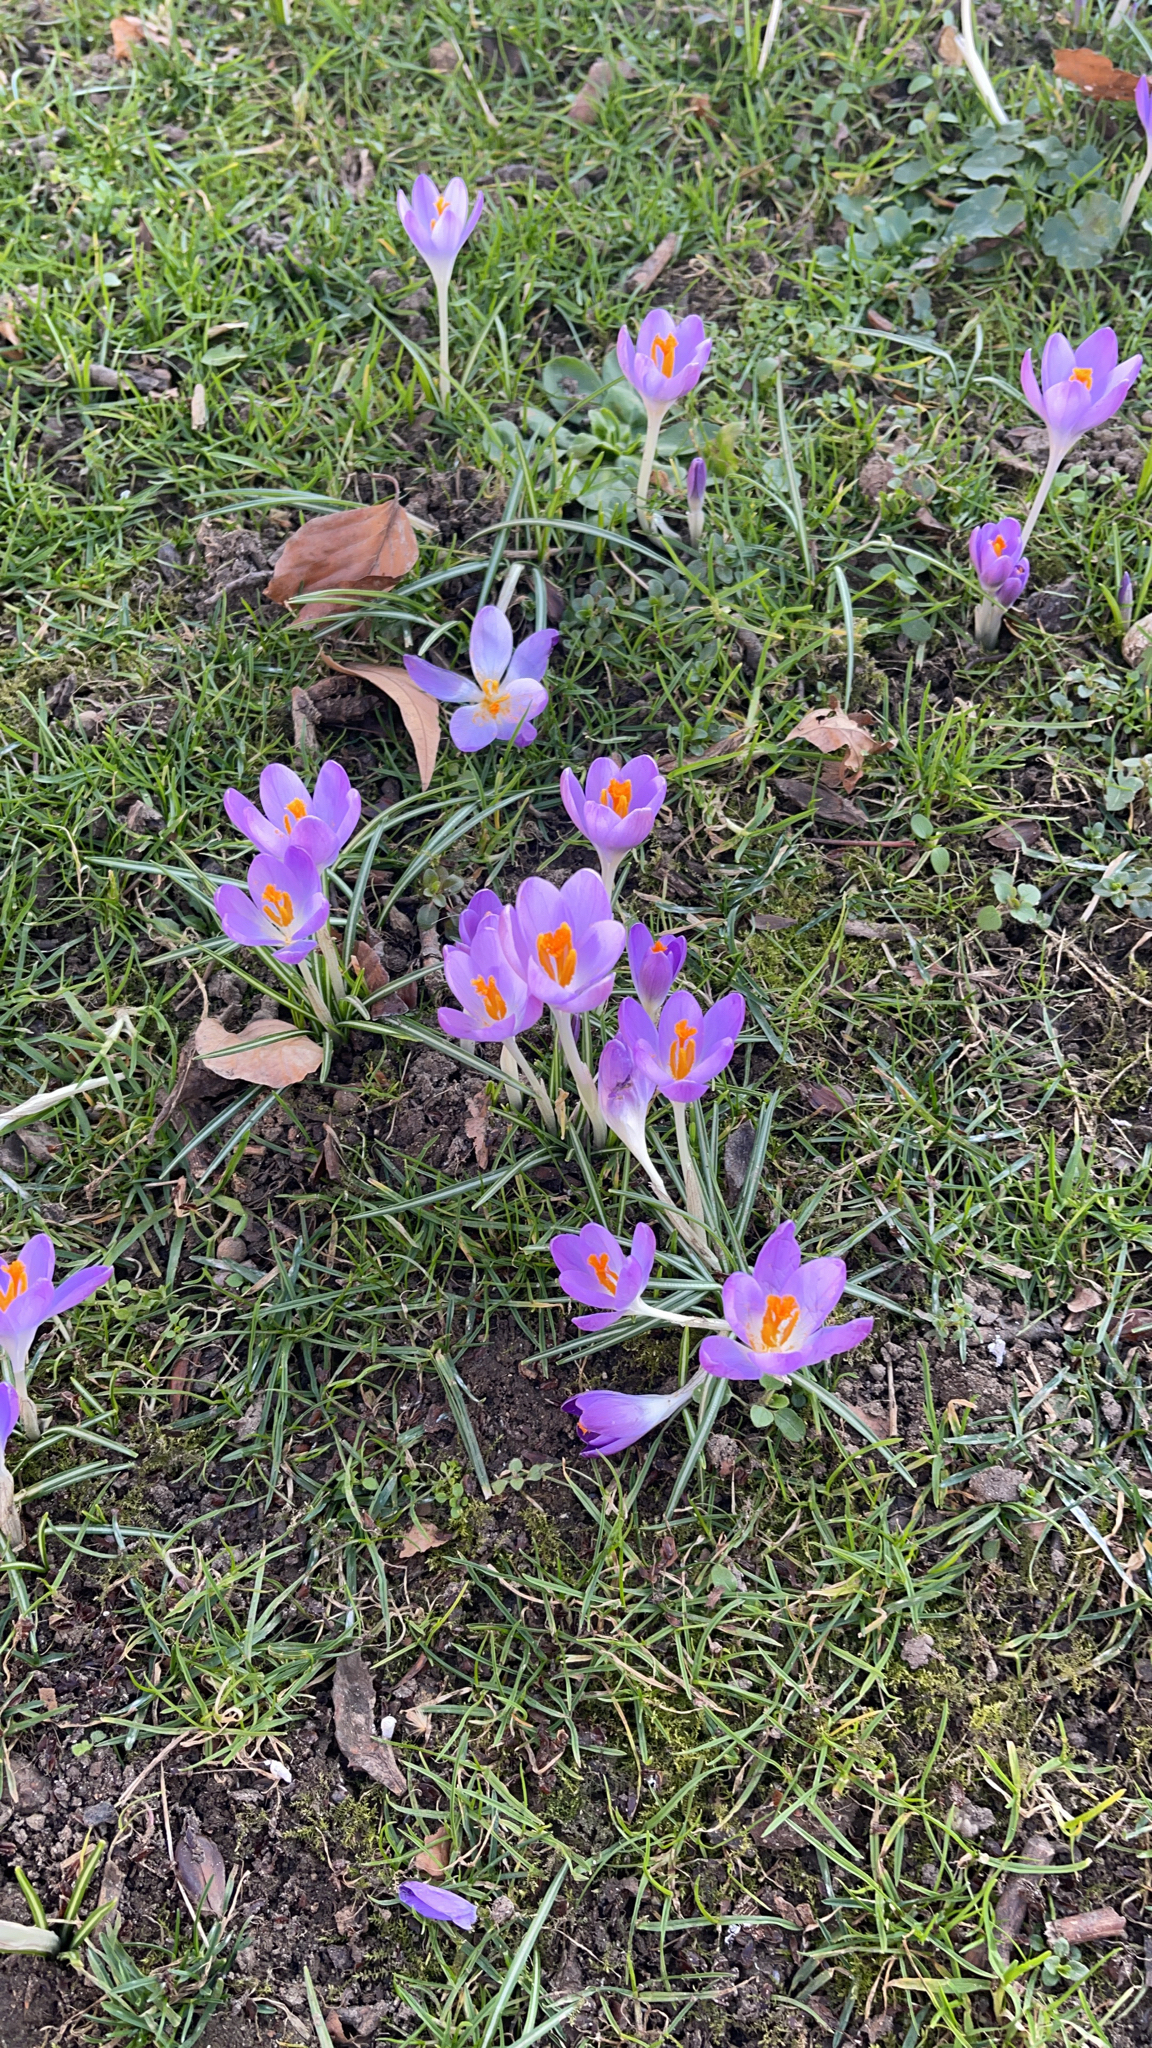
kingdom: Plantae
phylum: Tracheophyta
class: Liliopsida
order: Asparagales
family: Iridaceae
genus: Crocus
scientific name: Crocus tommasinianus
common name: Early crocus
